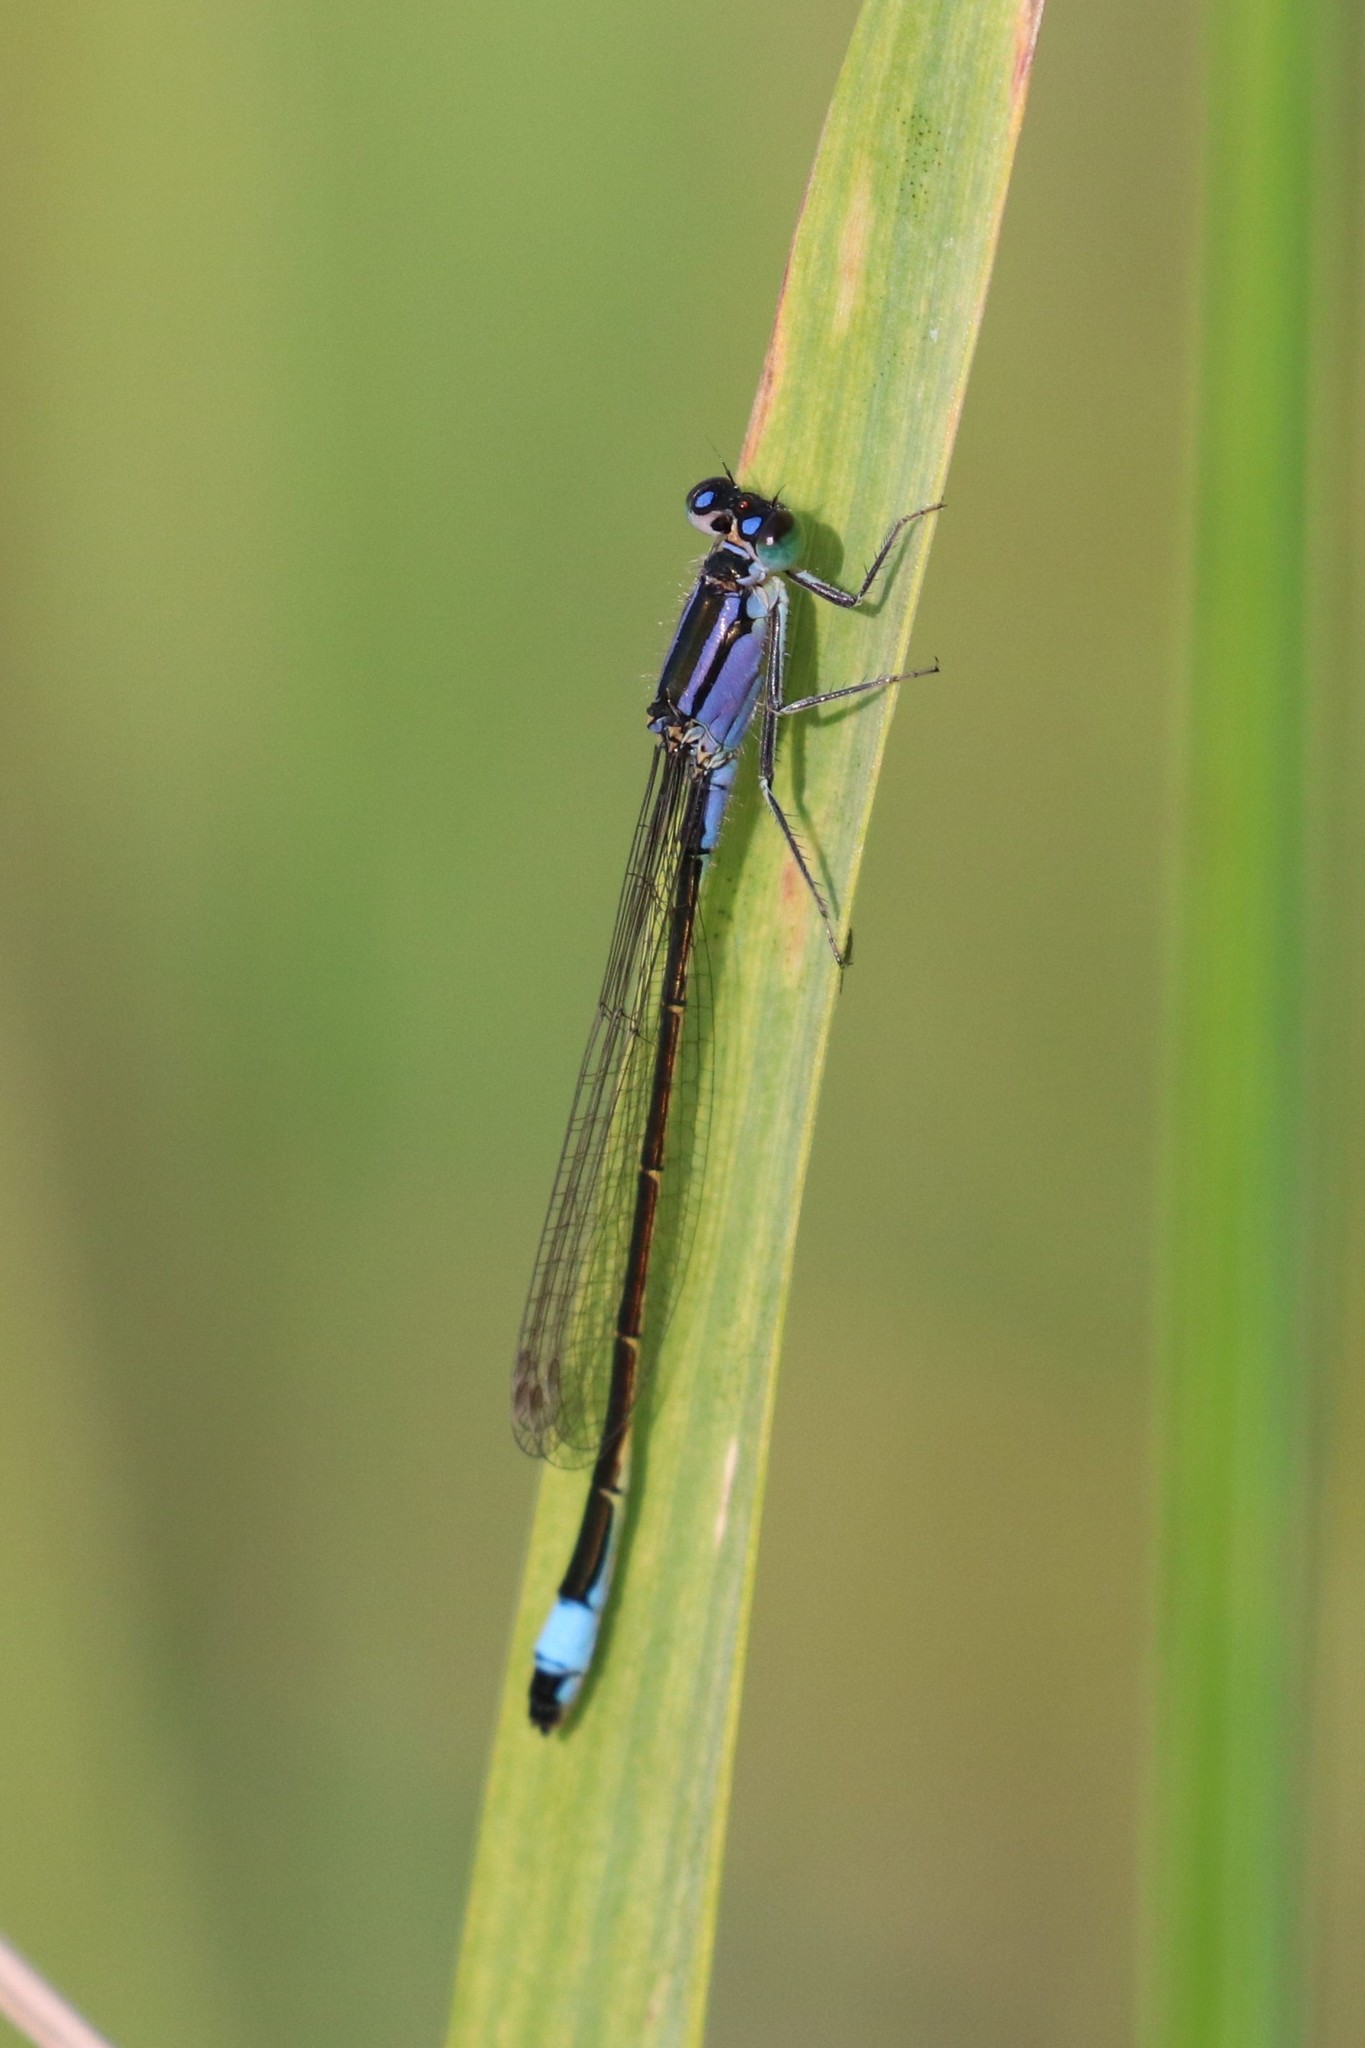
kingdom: Animalia
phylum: Arthropoda
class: Insecta
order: Odonata
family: Coenagrionidae
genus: Ischnura
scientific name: Ischnura elegans
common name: Blue-tailed damselfly
